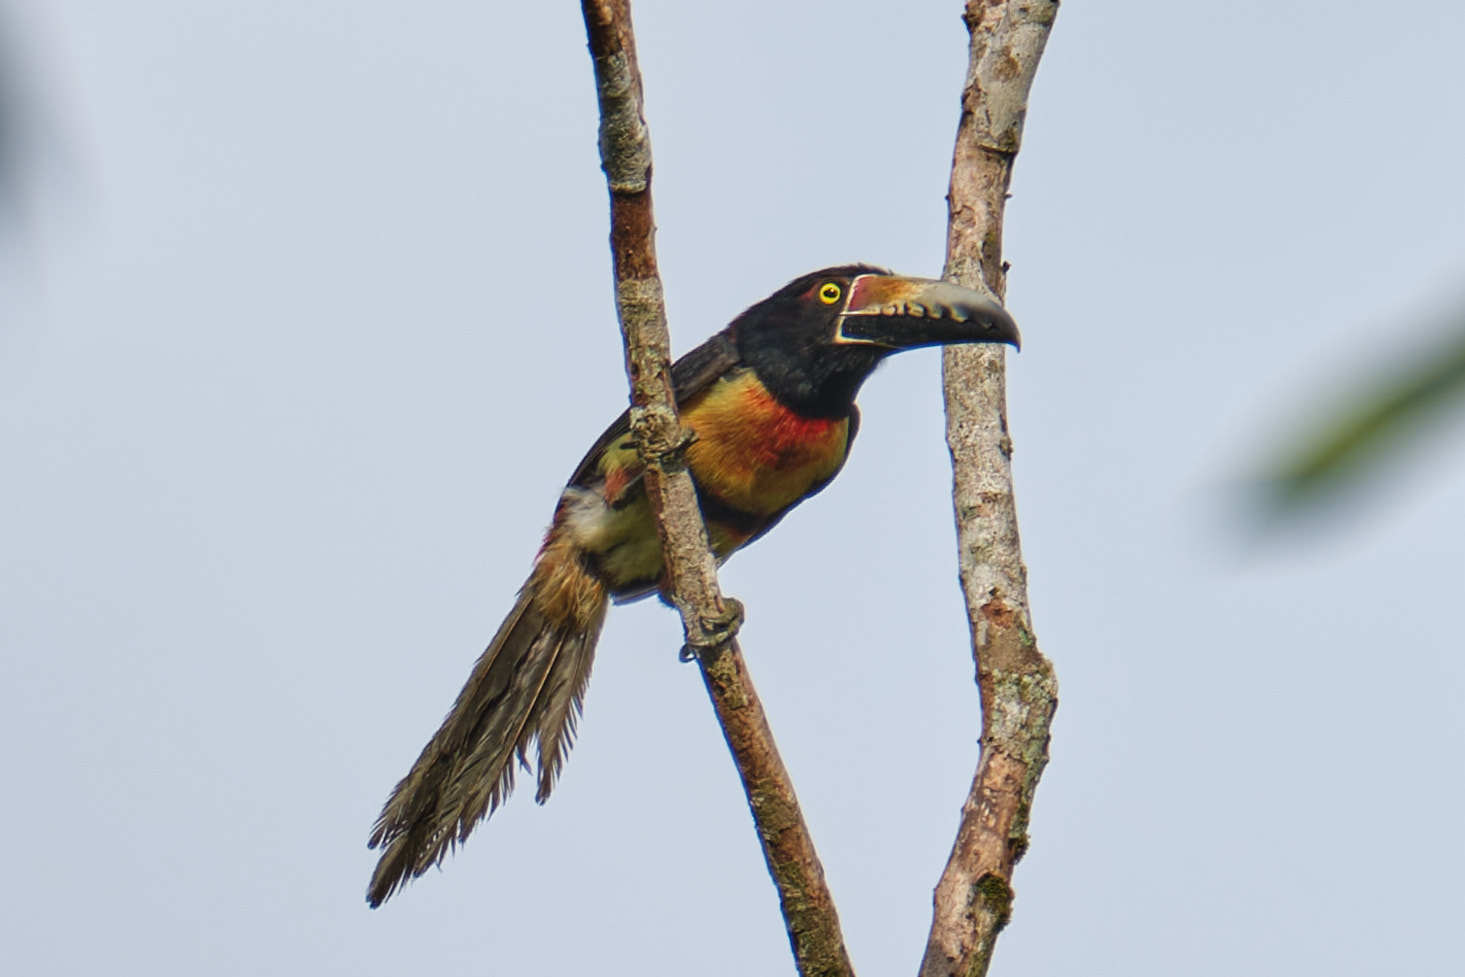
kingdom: Animalia
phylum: Chordata
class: Aves
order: Piciformes
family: Ramphastidae
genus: Pteroglossus
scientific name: Pteroglossus torquatus
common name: Collared aracari
